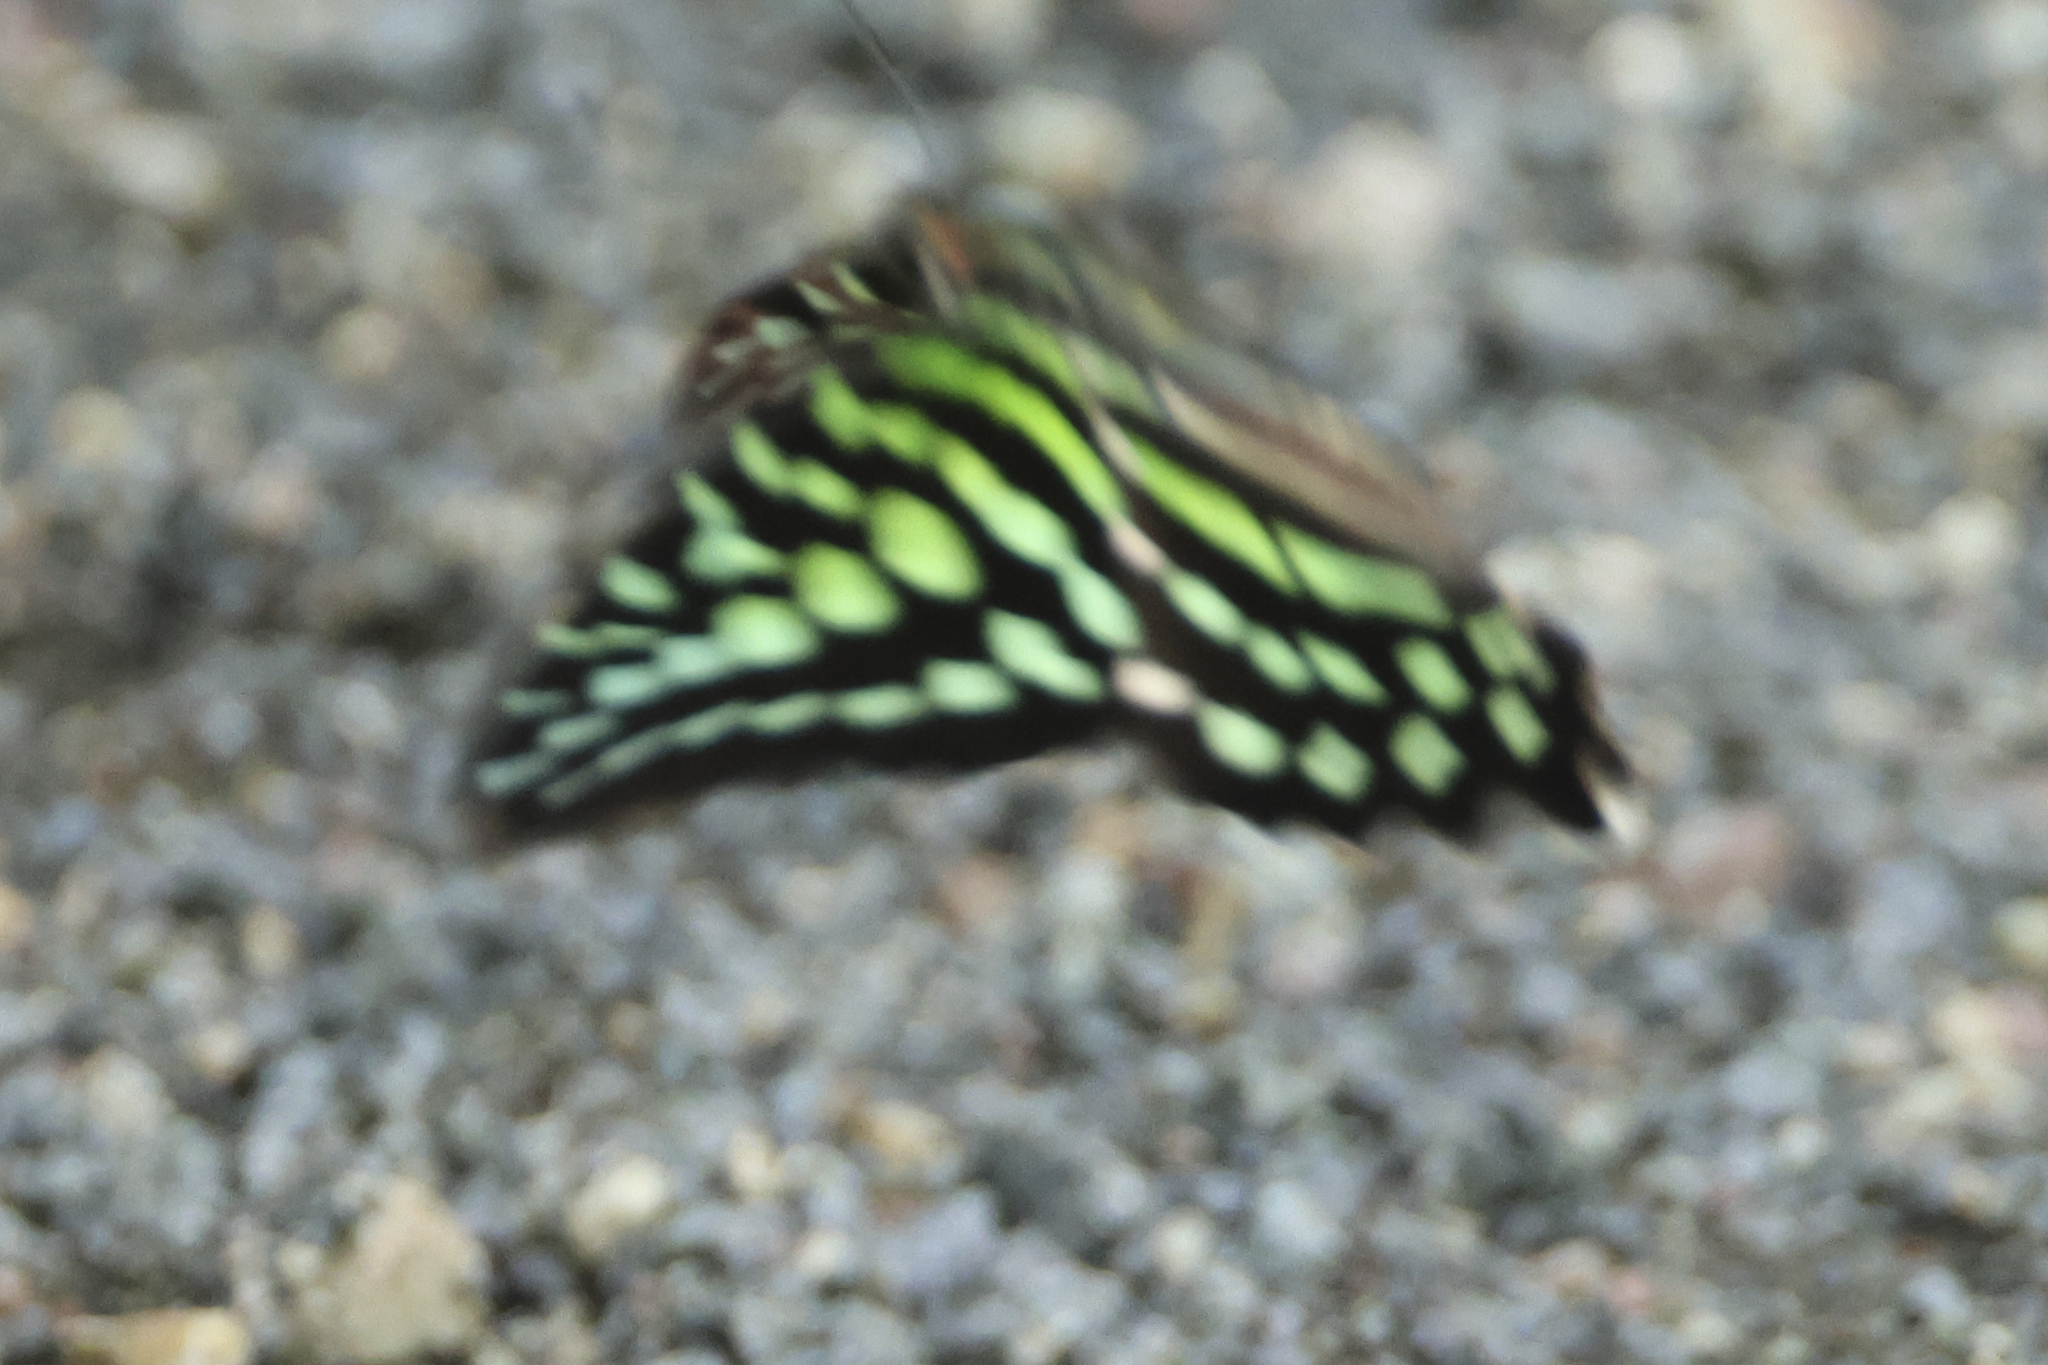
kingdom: Animalia
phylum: Arthropoda
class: Insecta
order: Lepidoptera
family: Papilionidae
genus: Graphium
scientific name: Graphium agamemnon
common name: Tailed jay
